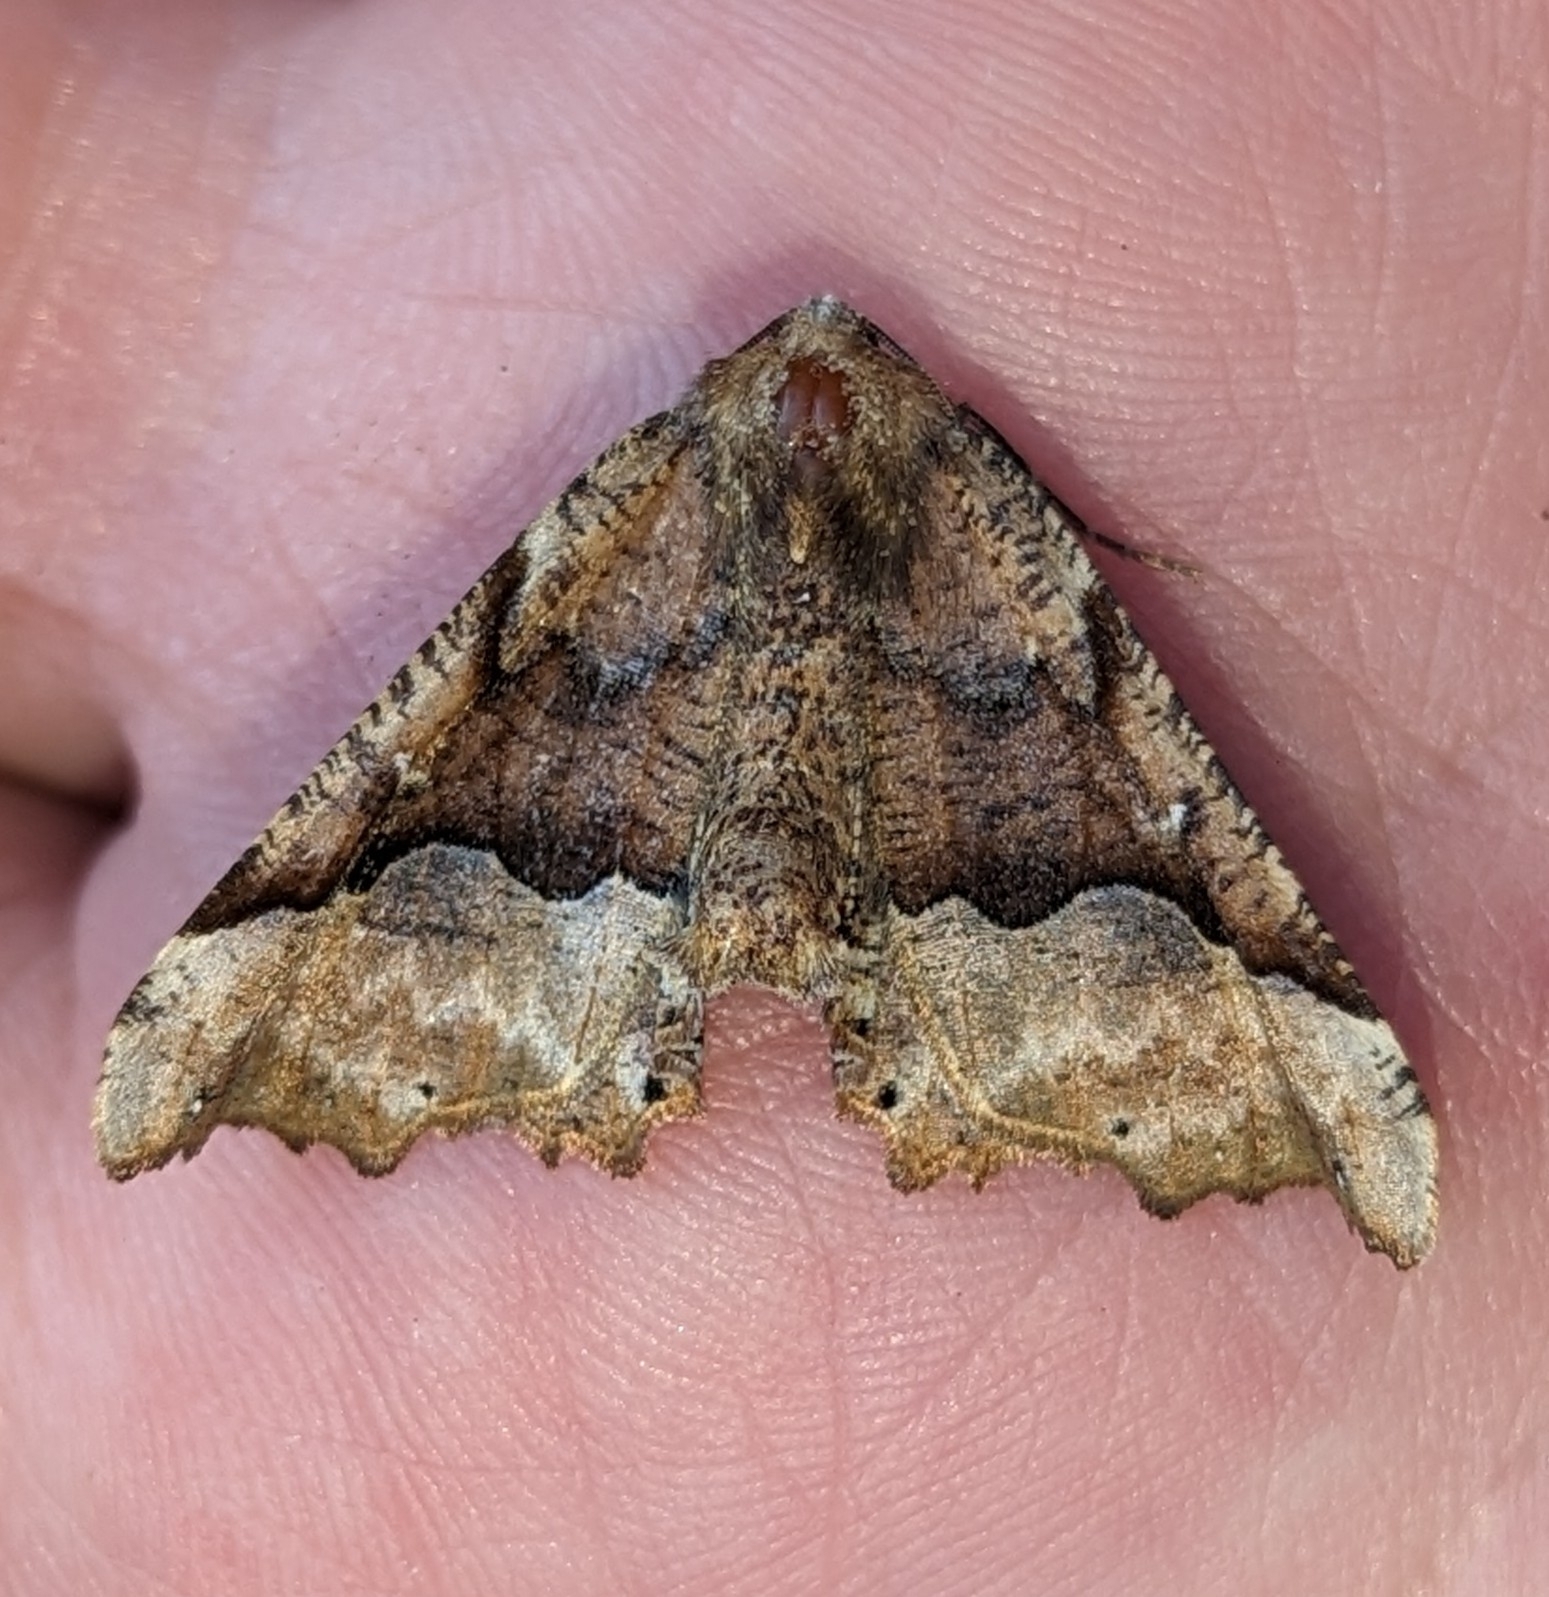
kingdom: Animalia
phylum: Arthropoda
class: Insecta
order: Lepidoptera
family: Geometridae
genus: Pero
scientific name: Pero morrisonaria
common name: Morrison's pero
